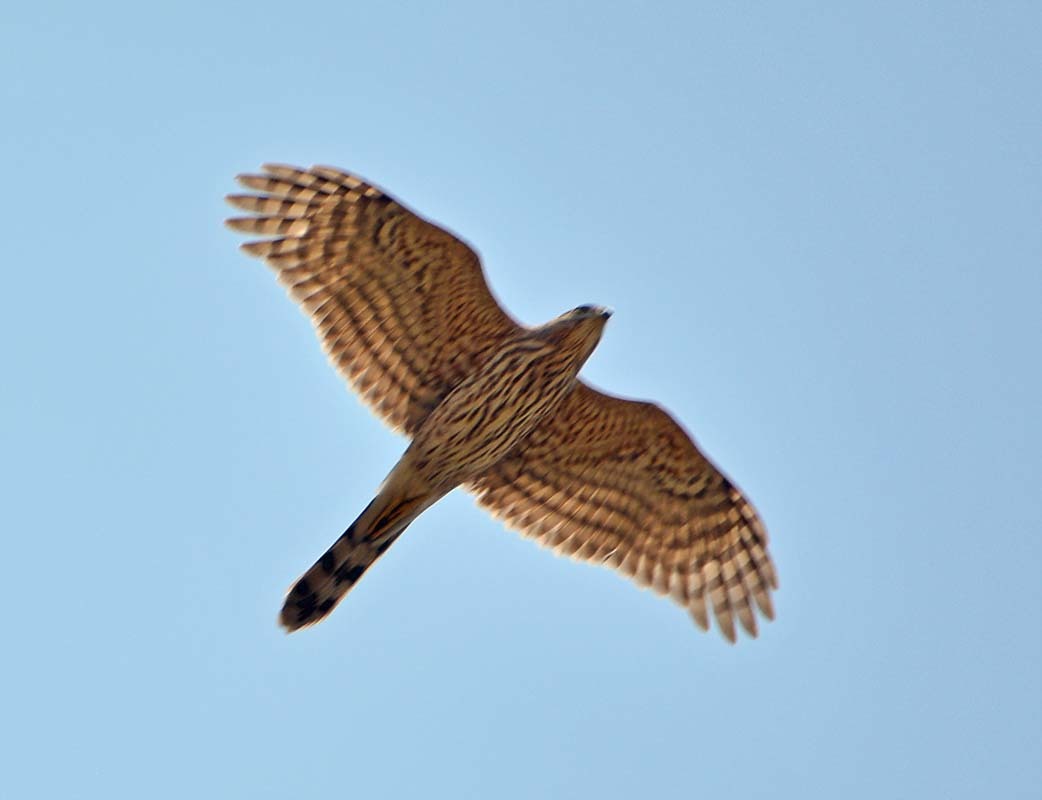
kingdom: Animalia
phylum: Chordata
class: Aves
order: Accipitriformes
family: Accipitridae
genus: Accipiter
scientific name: Accipiter cooperii
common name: Cooper's hawk
